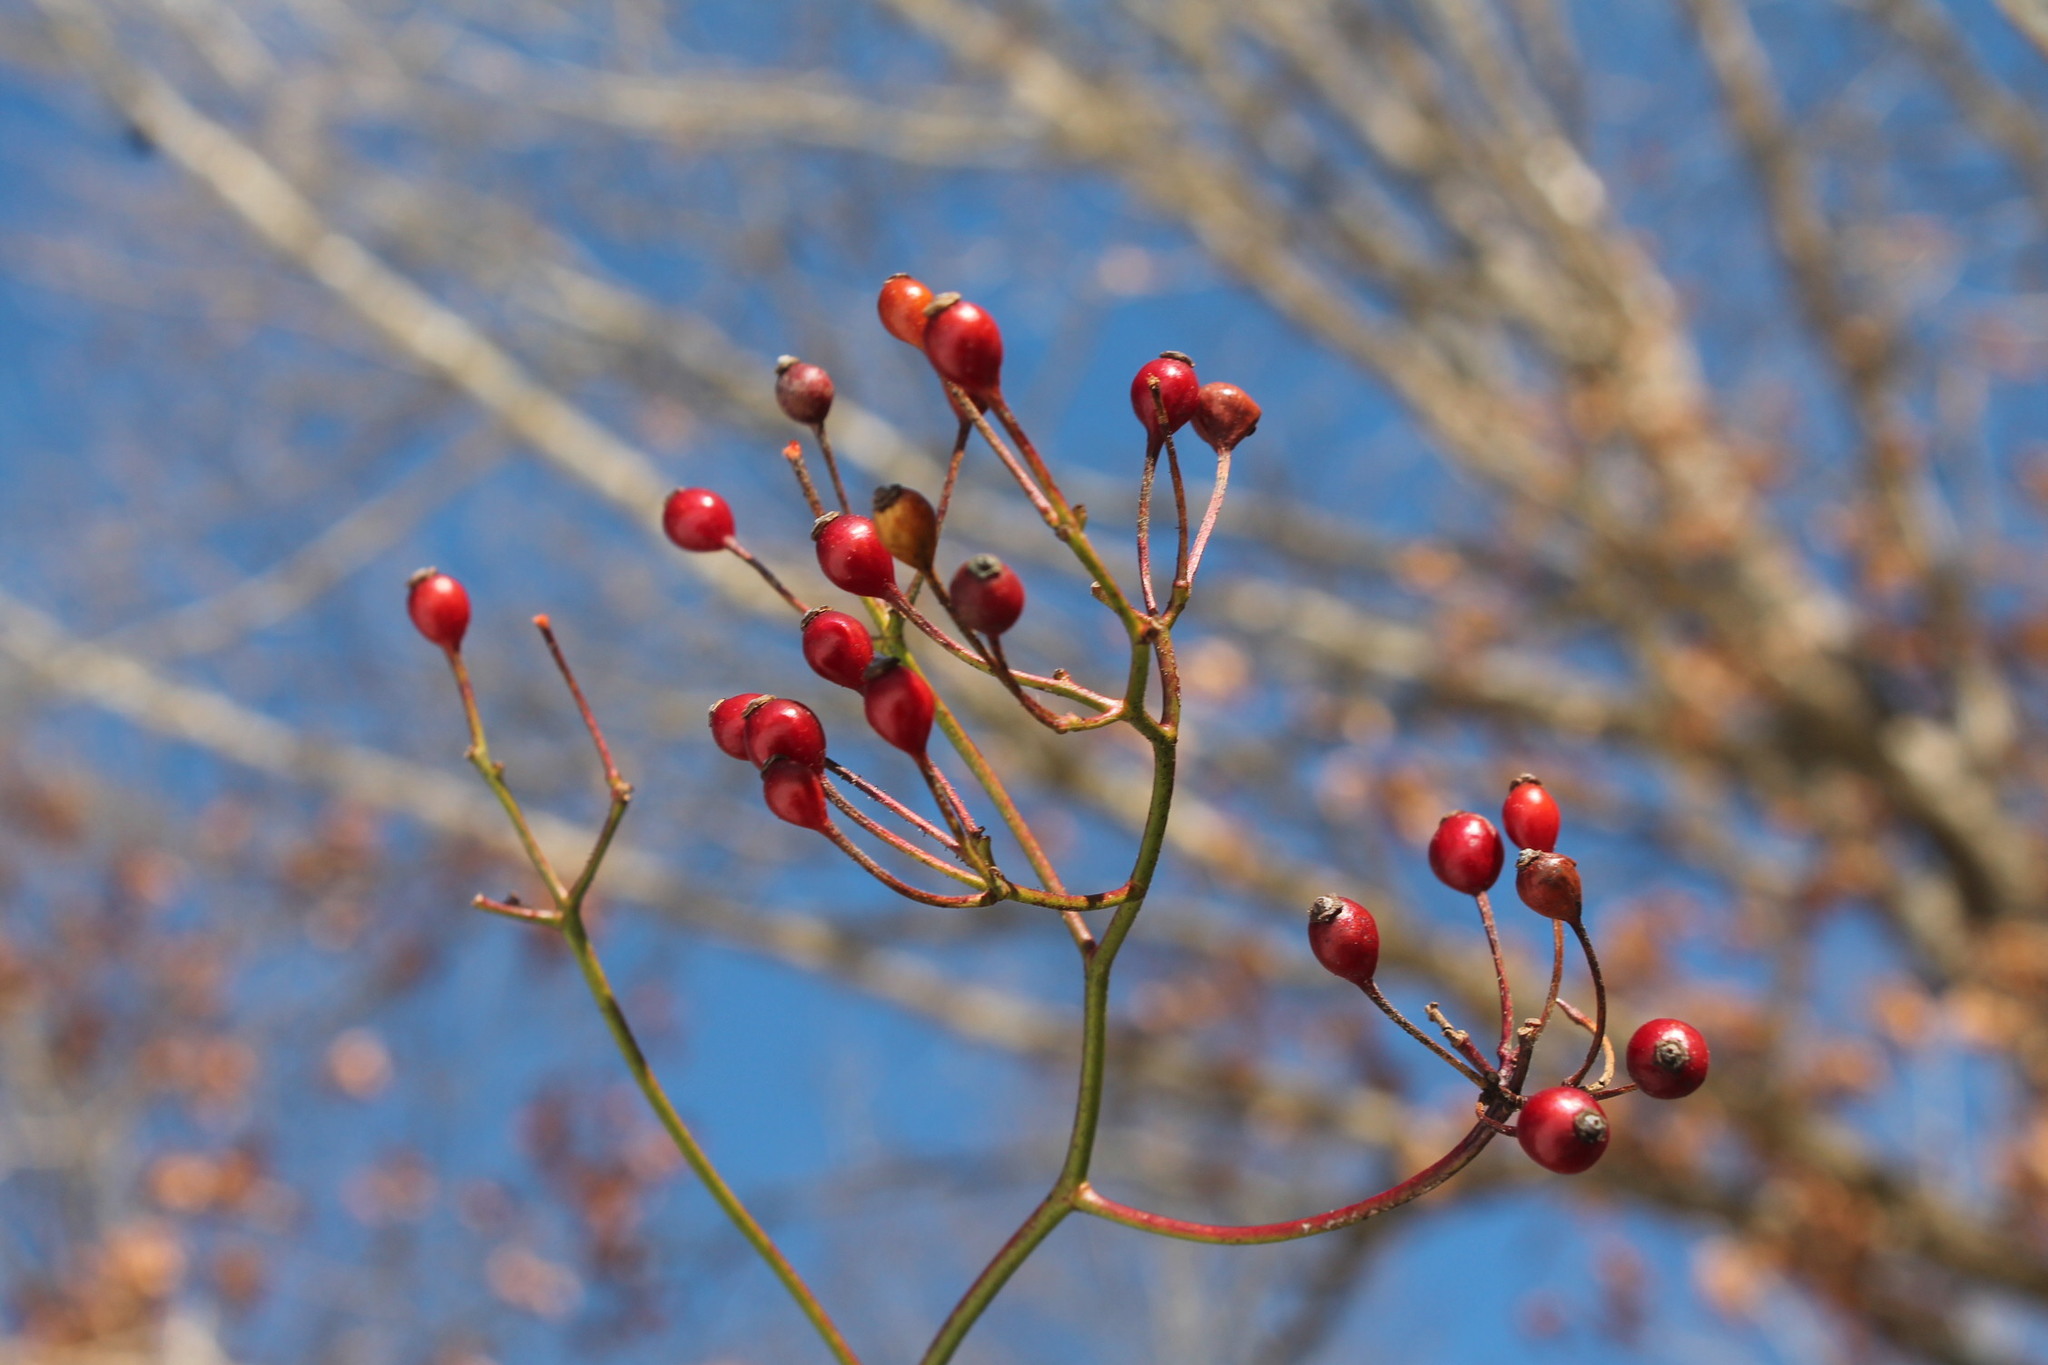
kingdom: Plantae
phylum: Tracheophyta
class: Magnoliopsida
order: Rosales
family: Rosaceae
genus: Rosa
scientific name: Rosa multiflora
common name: Multiflora rose
